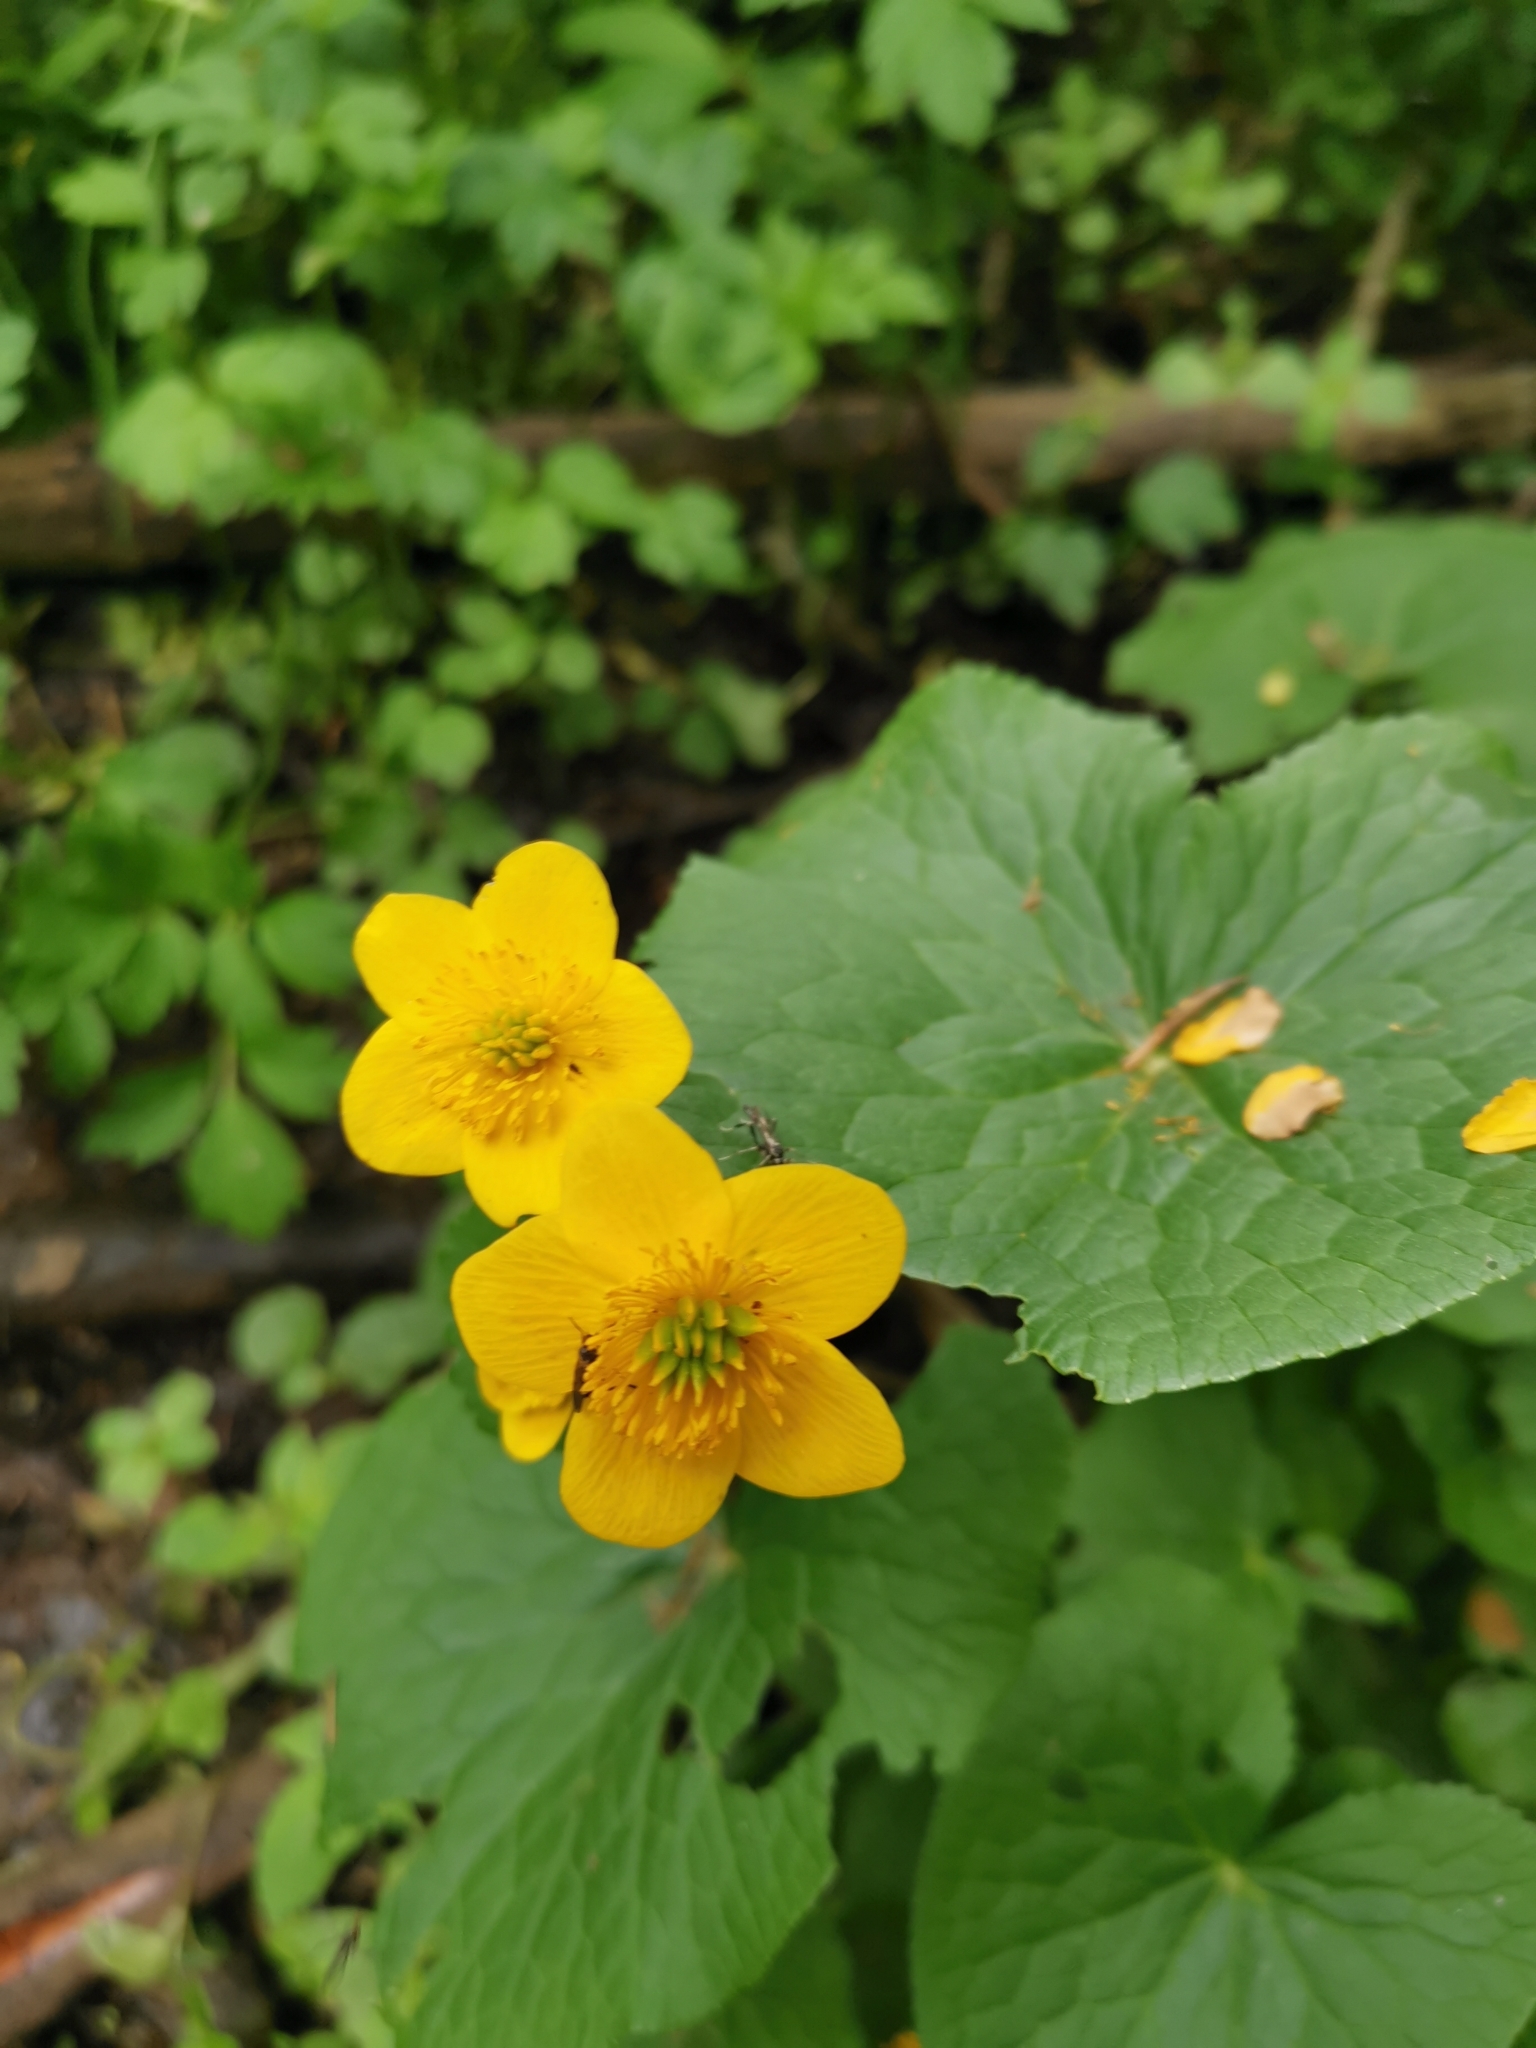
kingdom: Plantae
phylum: Tracheophyta
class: Magnoliopsida
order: Ranunculales
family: Ranunculaceae
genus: Caltha
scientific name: Caltha palustris
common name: Marsh marigold
